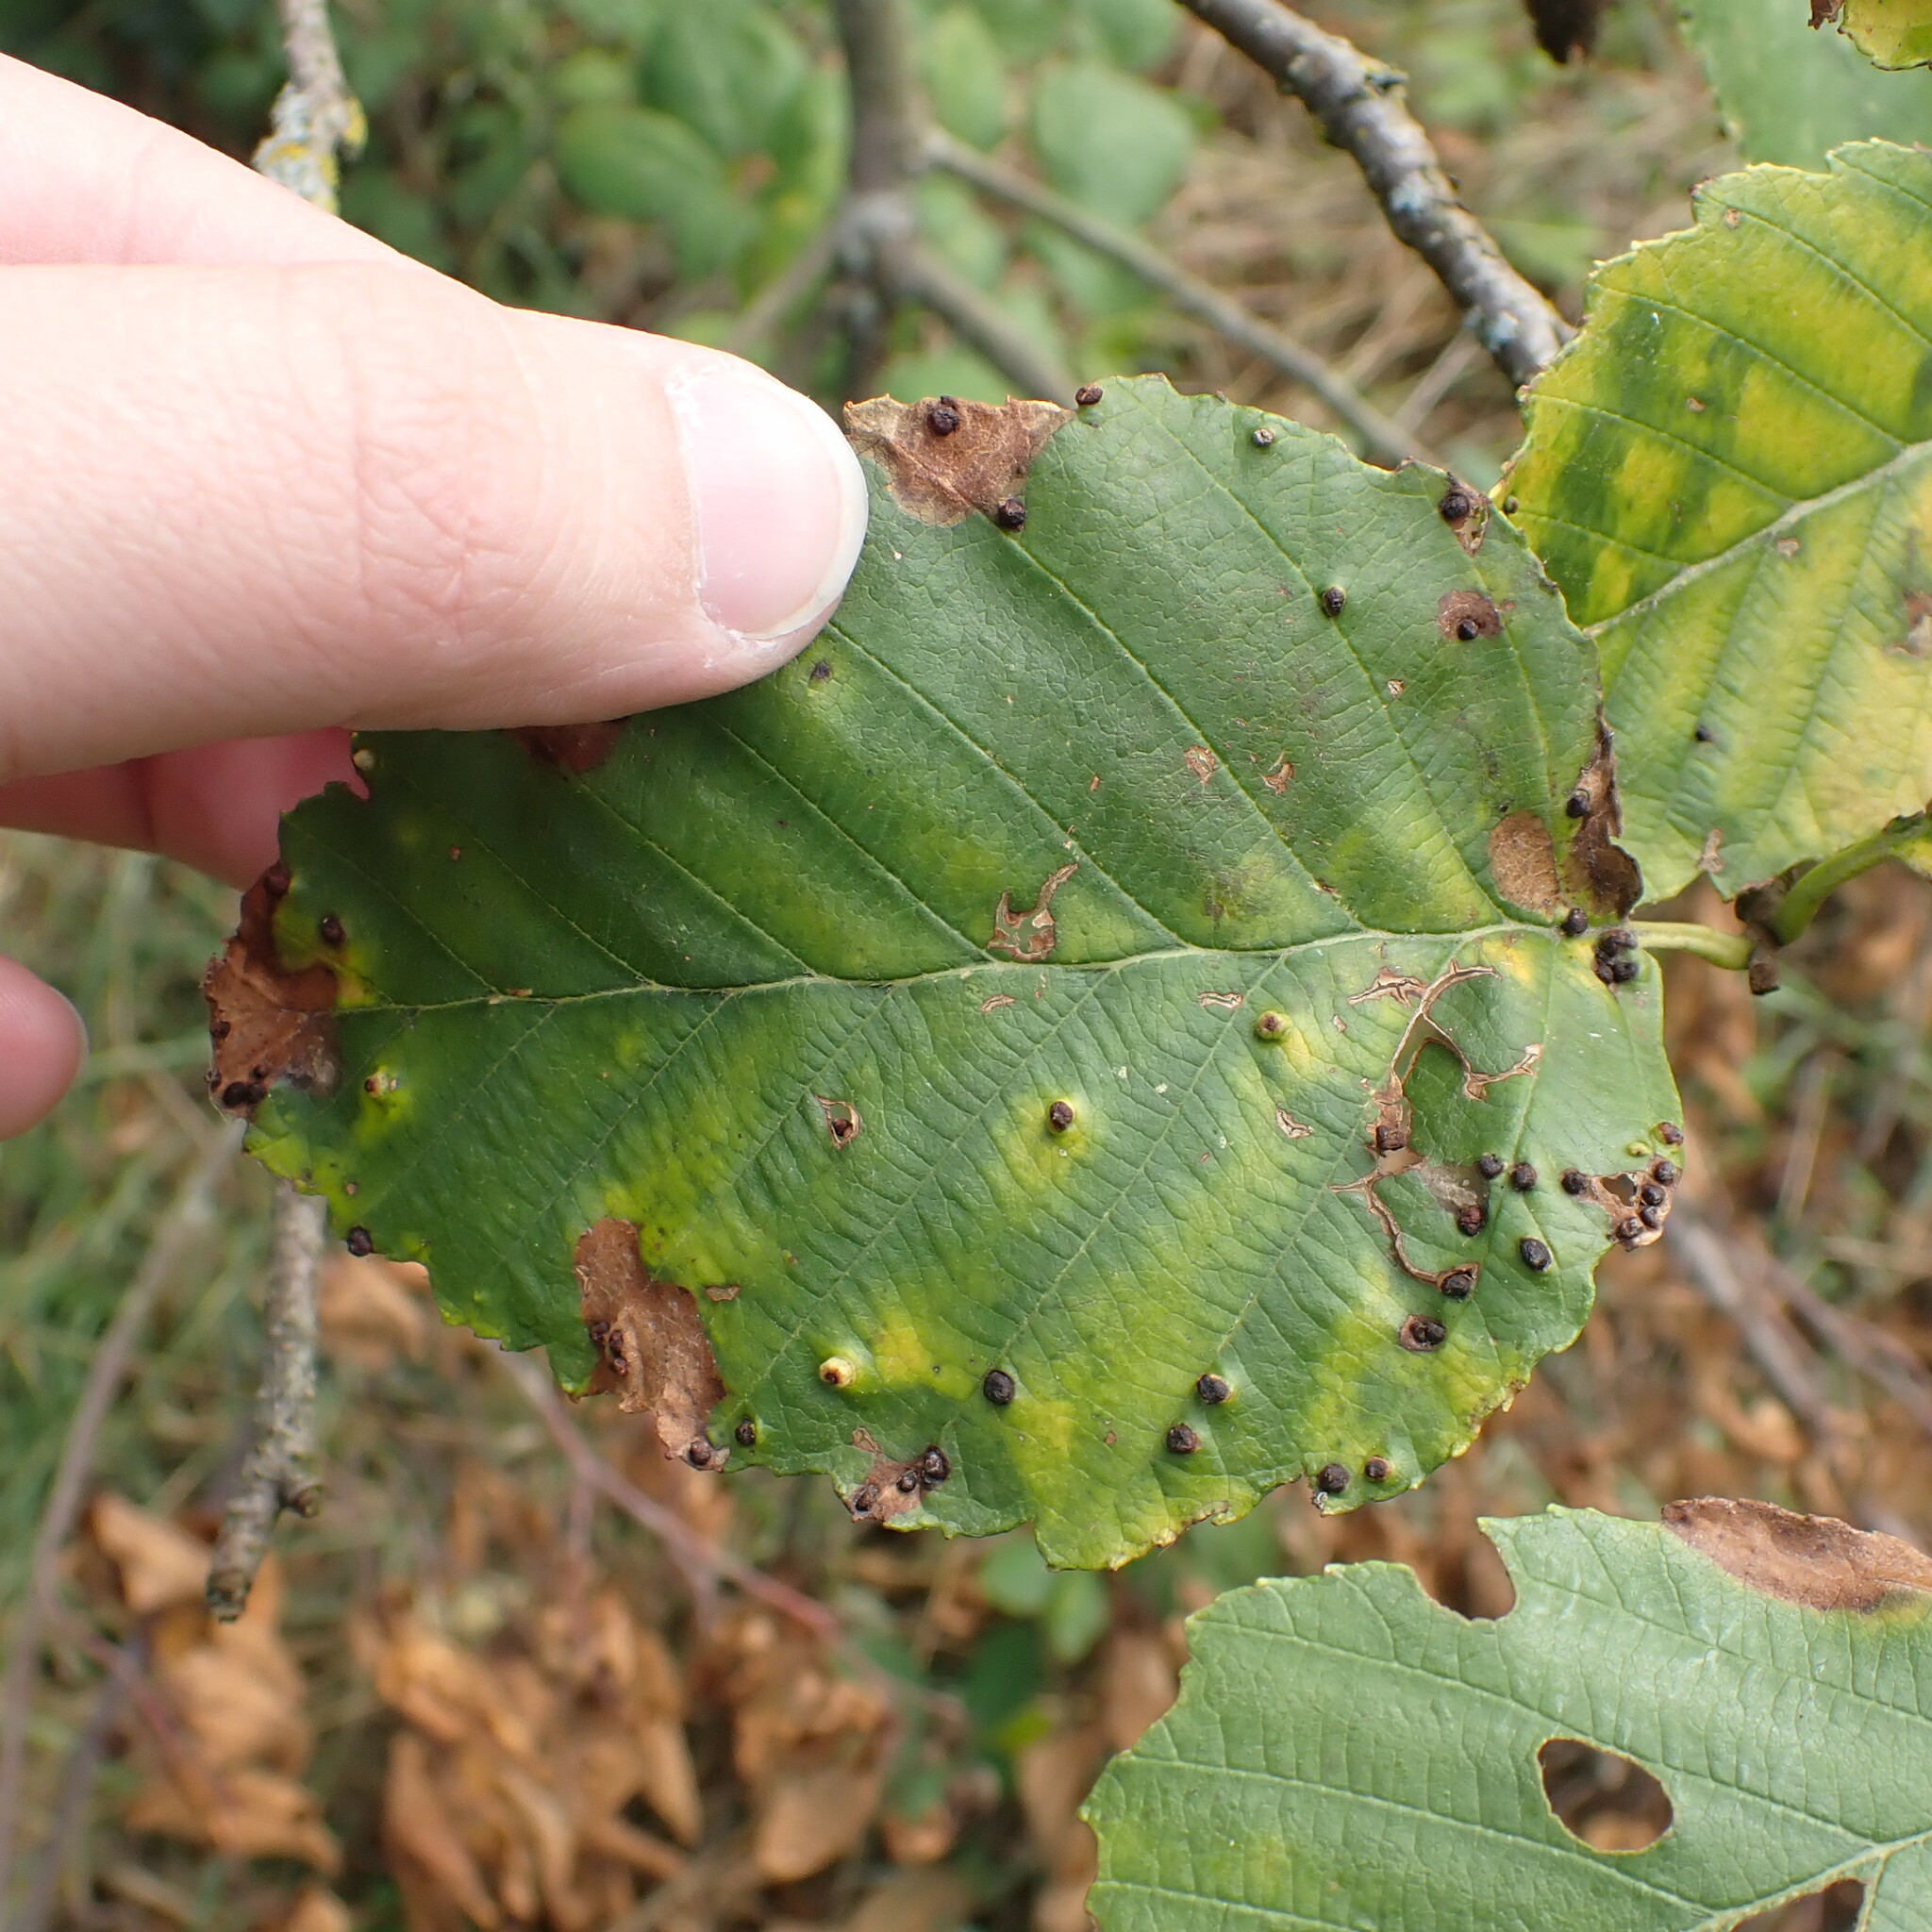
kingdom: Animalia
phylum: Arthropoda
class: Arachnida
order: Trombidiformes
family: Eriophyidae
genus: Eriophyes
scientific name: Eriophyes laevis
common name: Alder leaf gall mite
